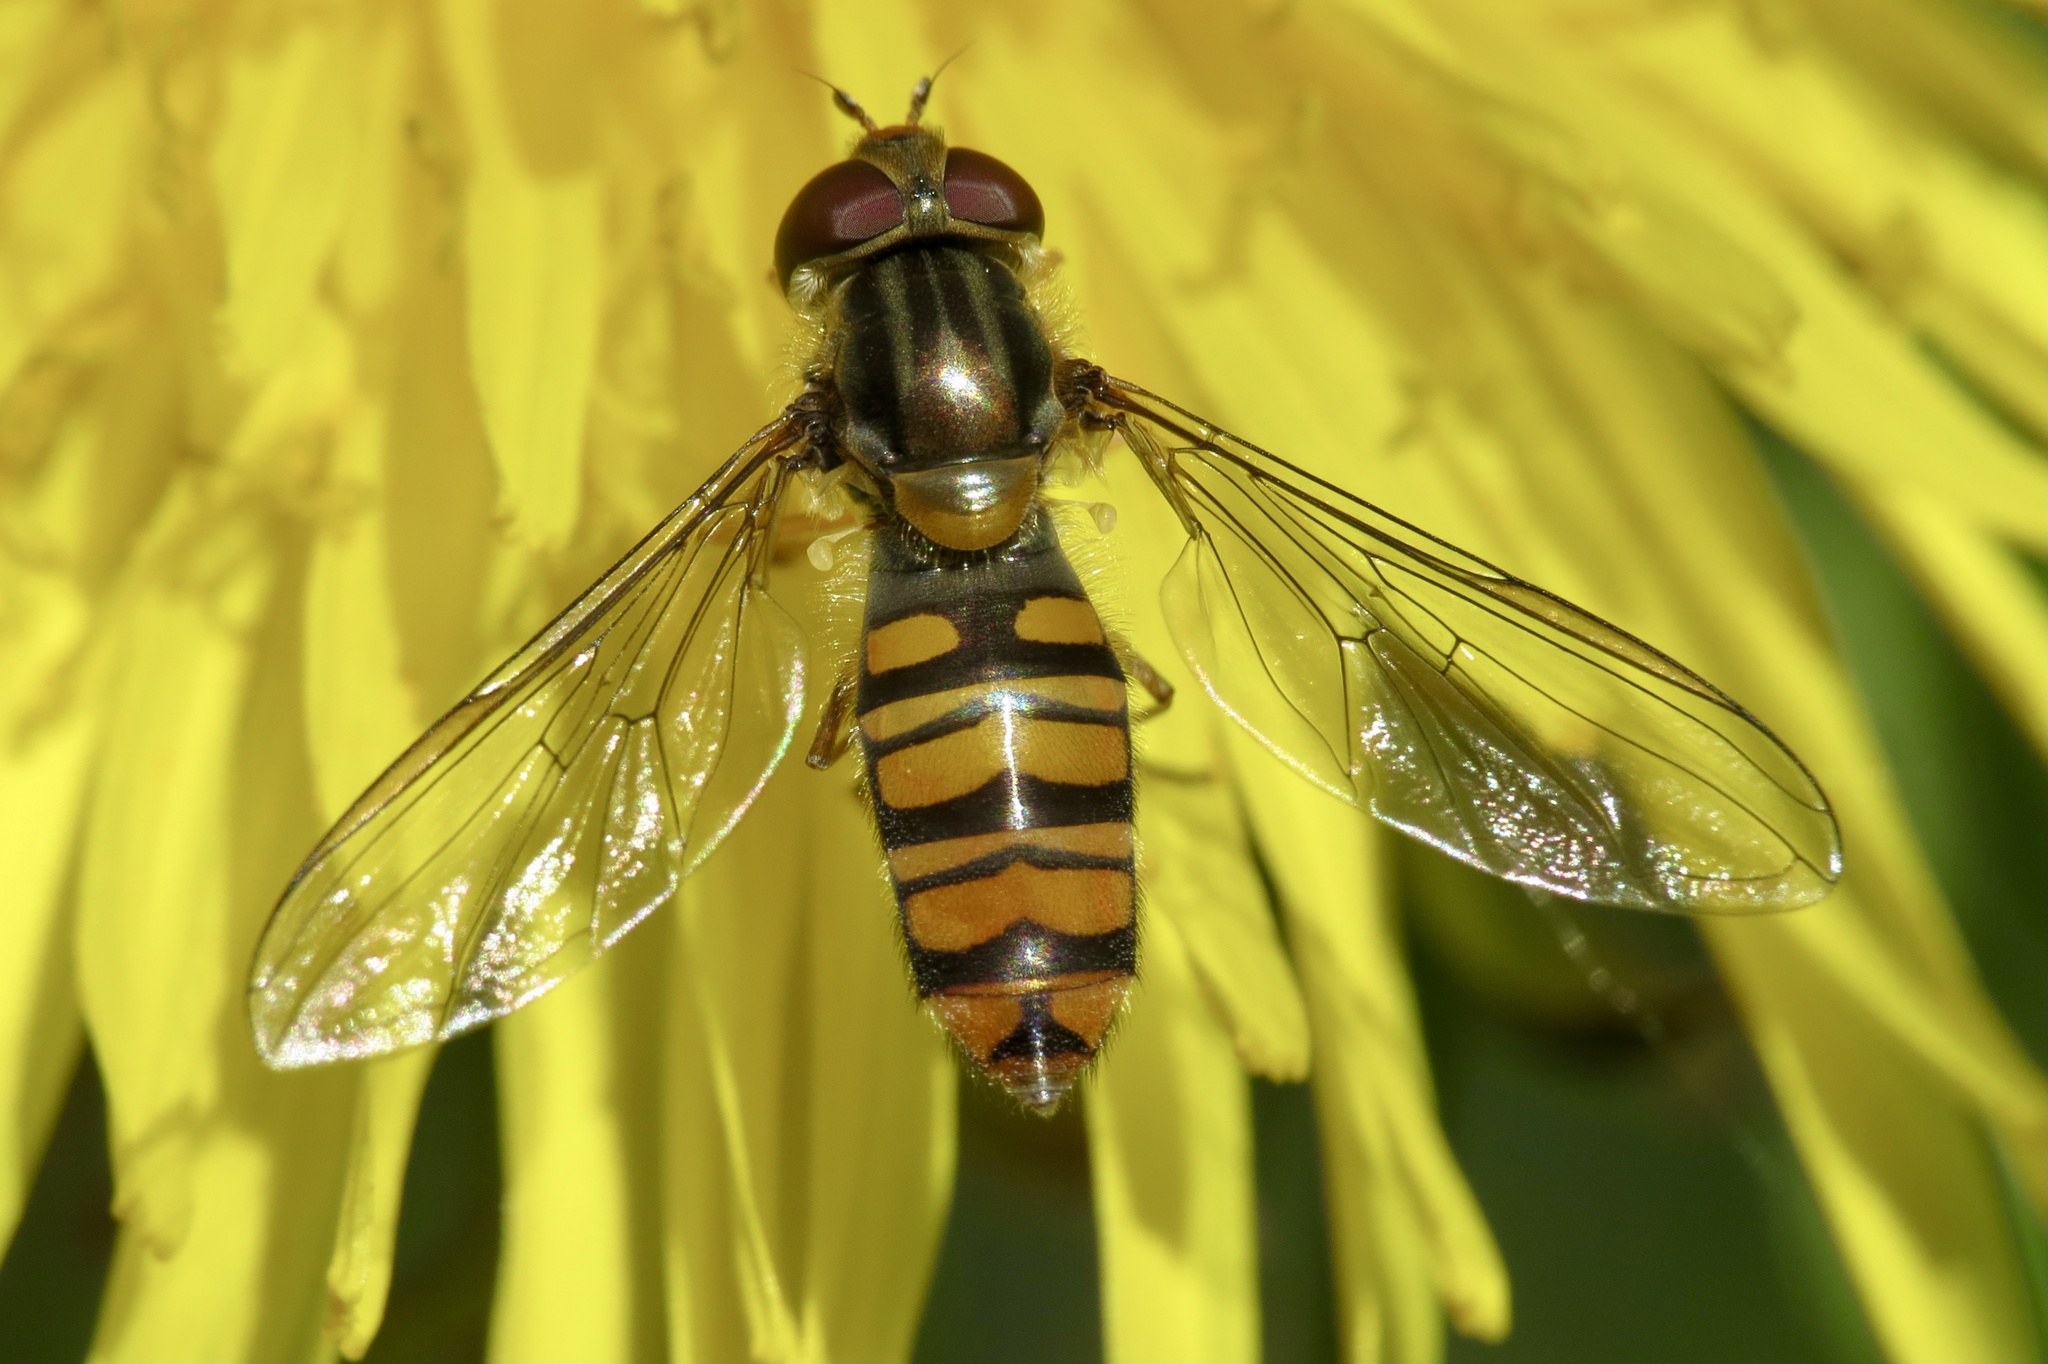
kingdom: Animalia
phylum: Arthropoda
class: Insecta
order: Diptera
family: Syrphidae
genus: Episyrphus
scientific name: Episyrphus balteatus
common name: Marmalade hoverfly
